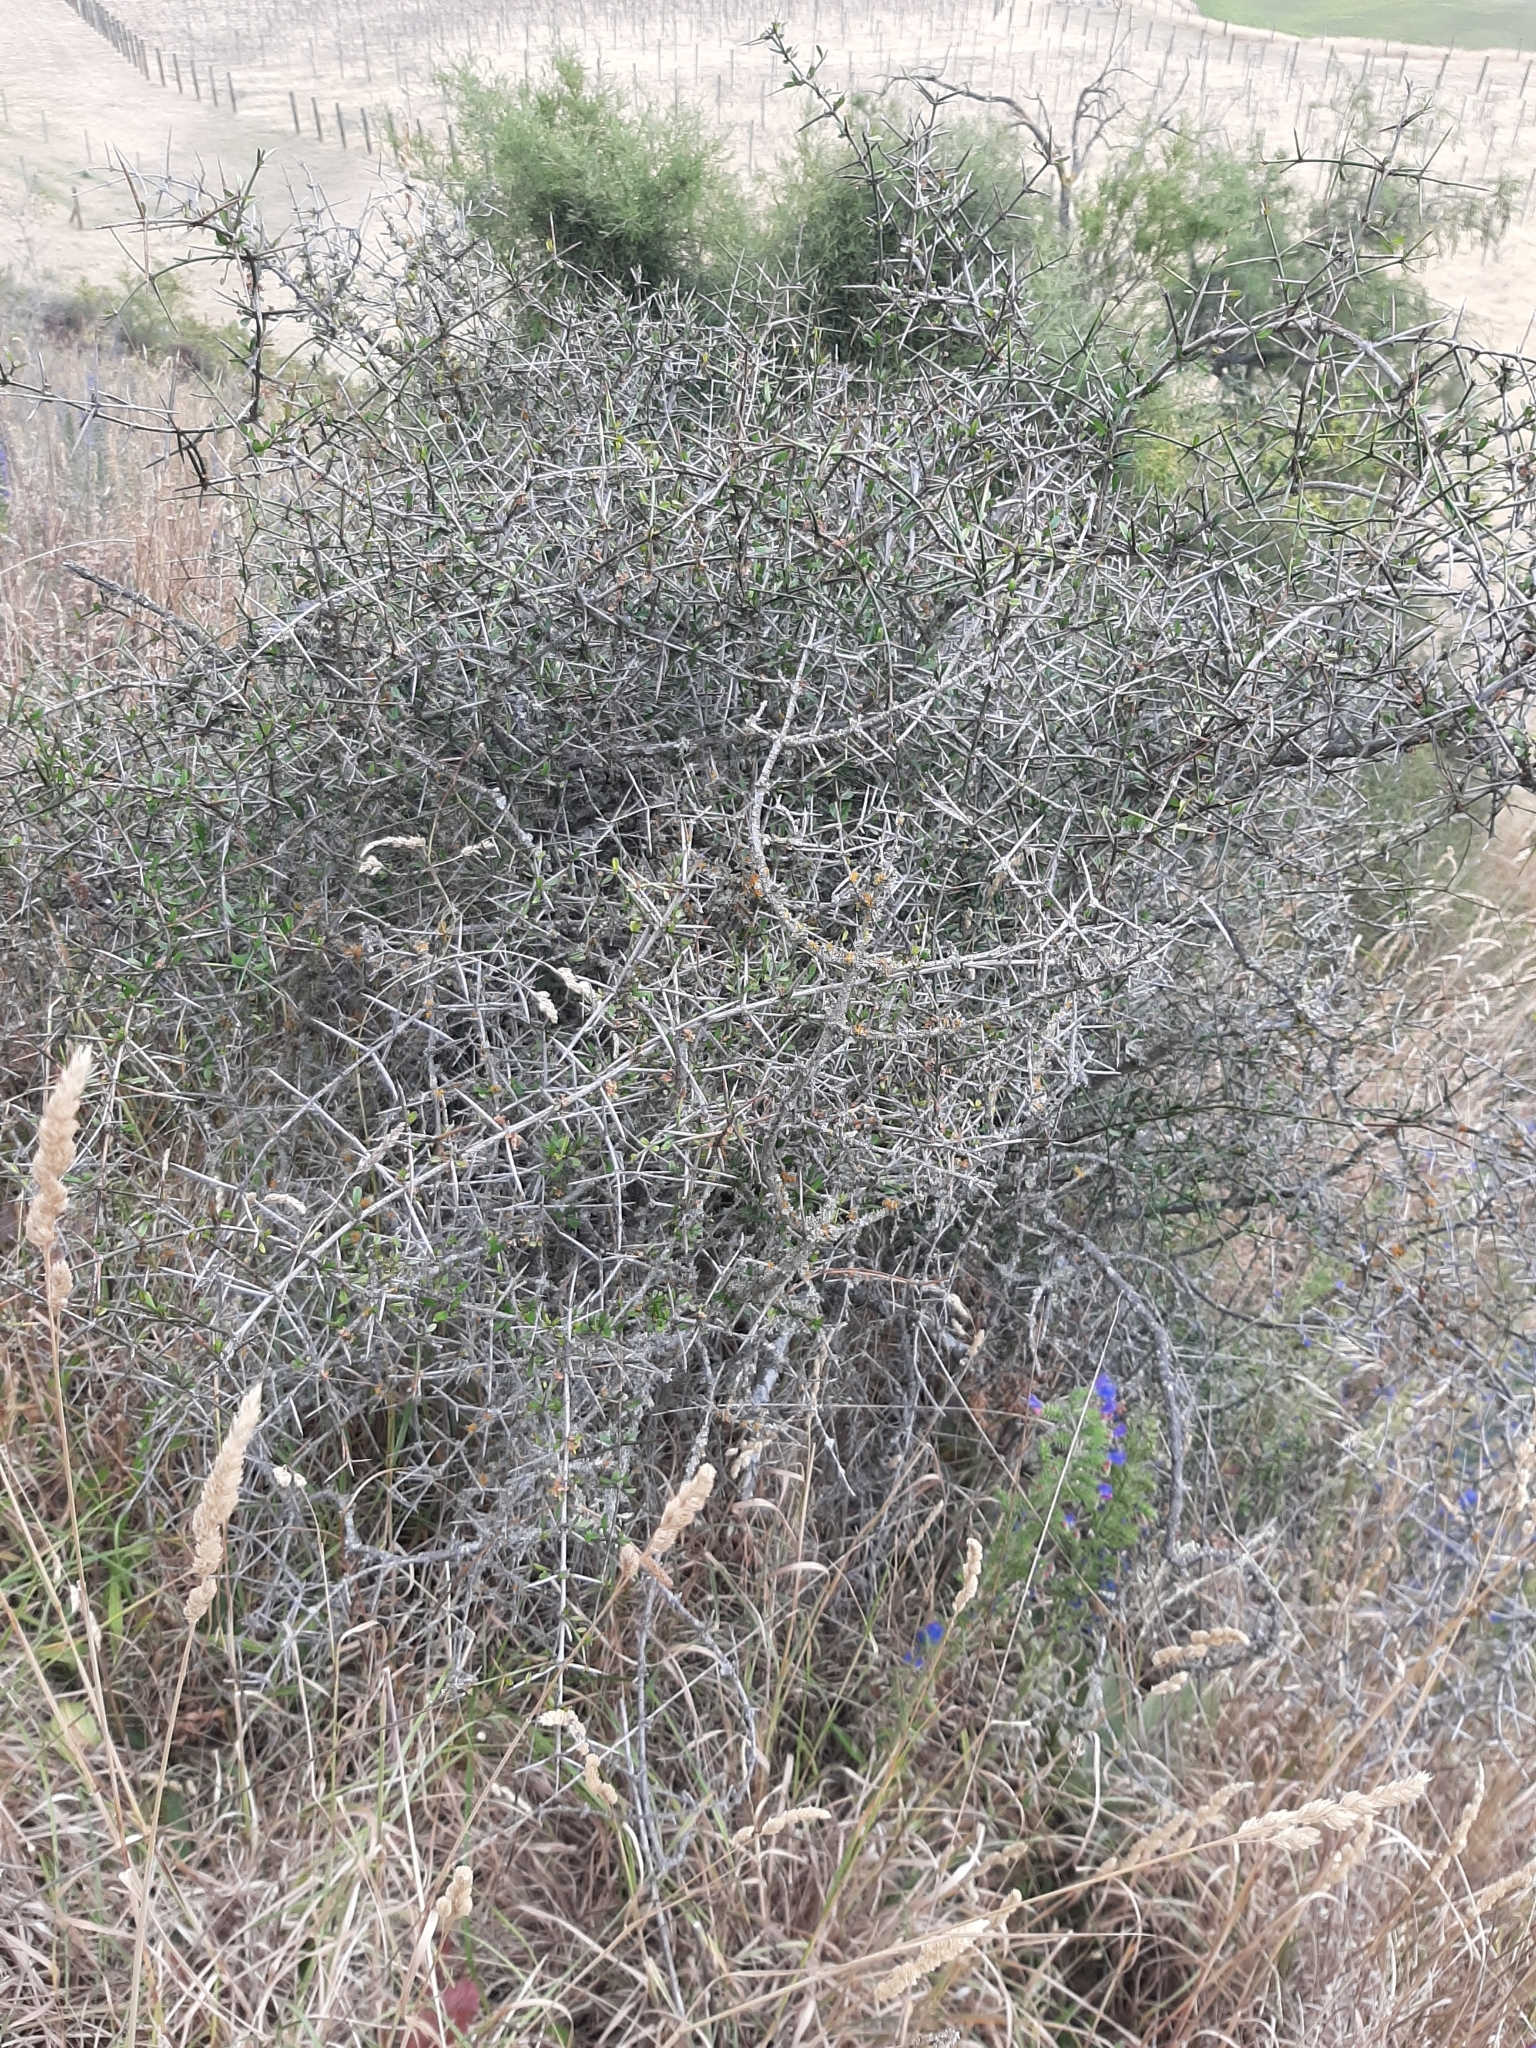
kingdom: Plantae
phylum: Tracheophyta
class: Magnoliopsida
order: Rosales
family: Rhamnaceae
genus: Discaria
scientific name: Discaria toumatou
